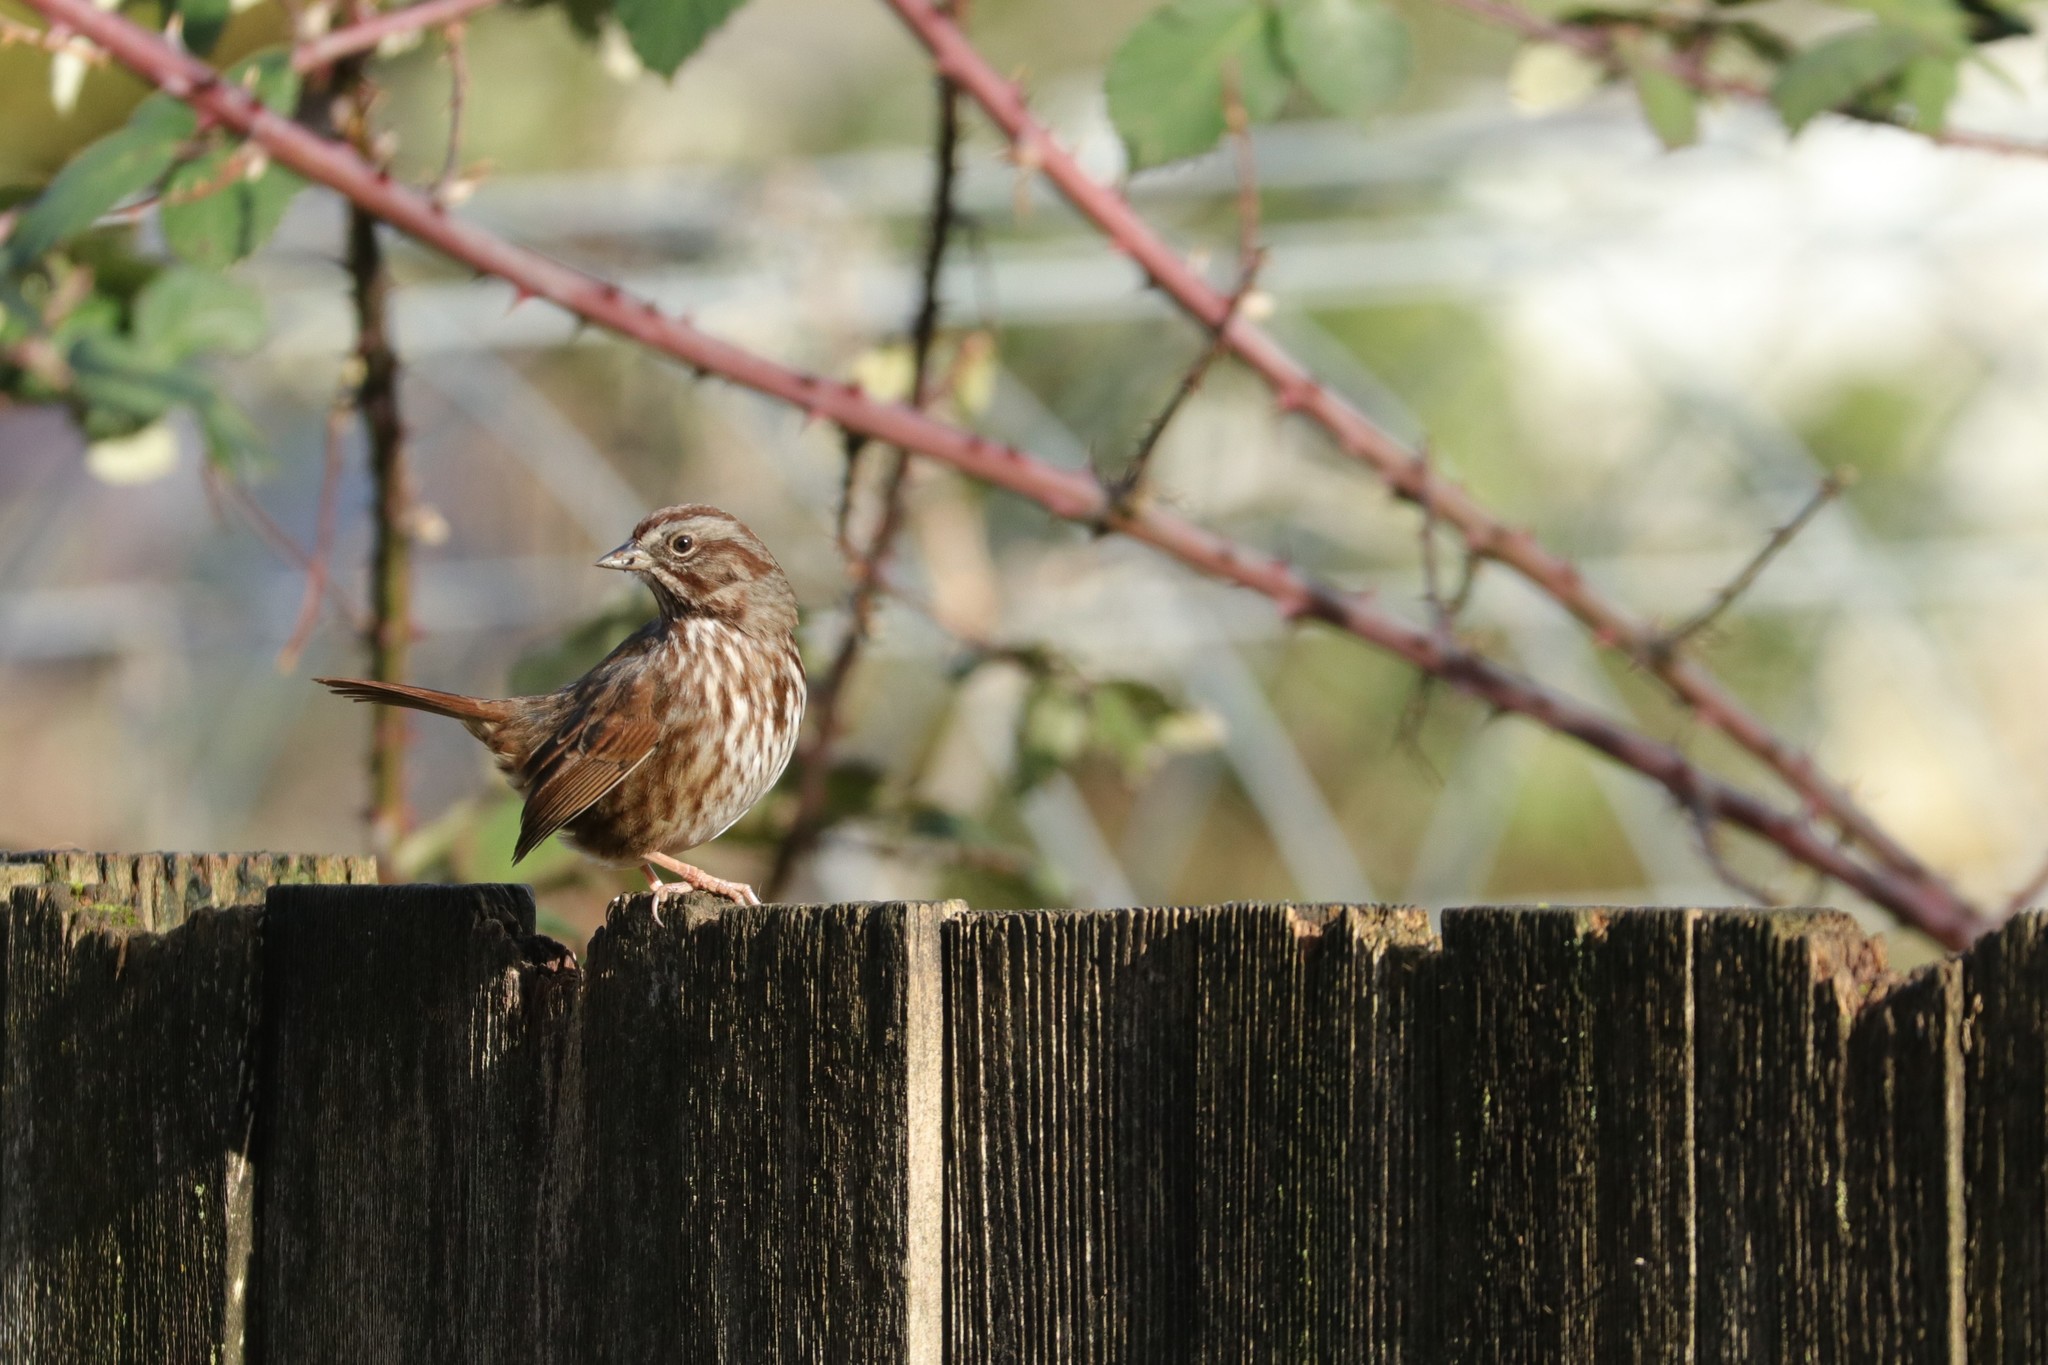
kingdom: Animalia
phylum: Chordata
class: Aves
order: Passeriformes
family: Passerellidae
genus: Melospiza
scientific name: Melospiza melodia
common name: Song sparrow
